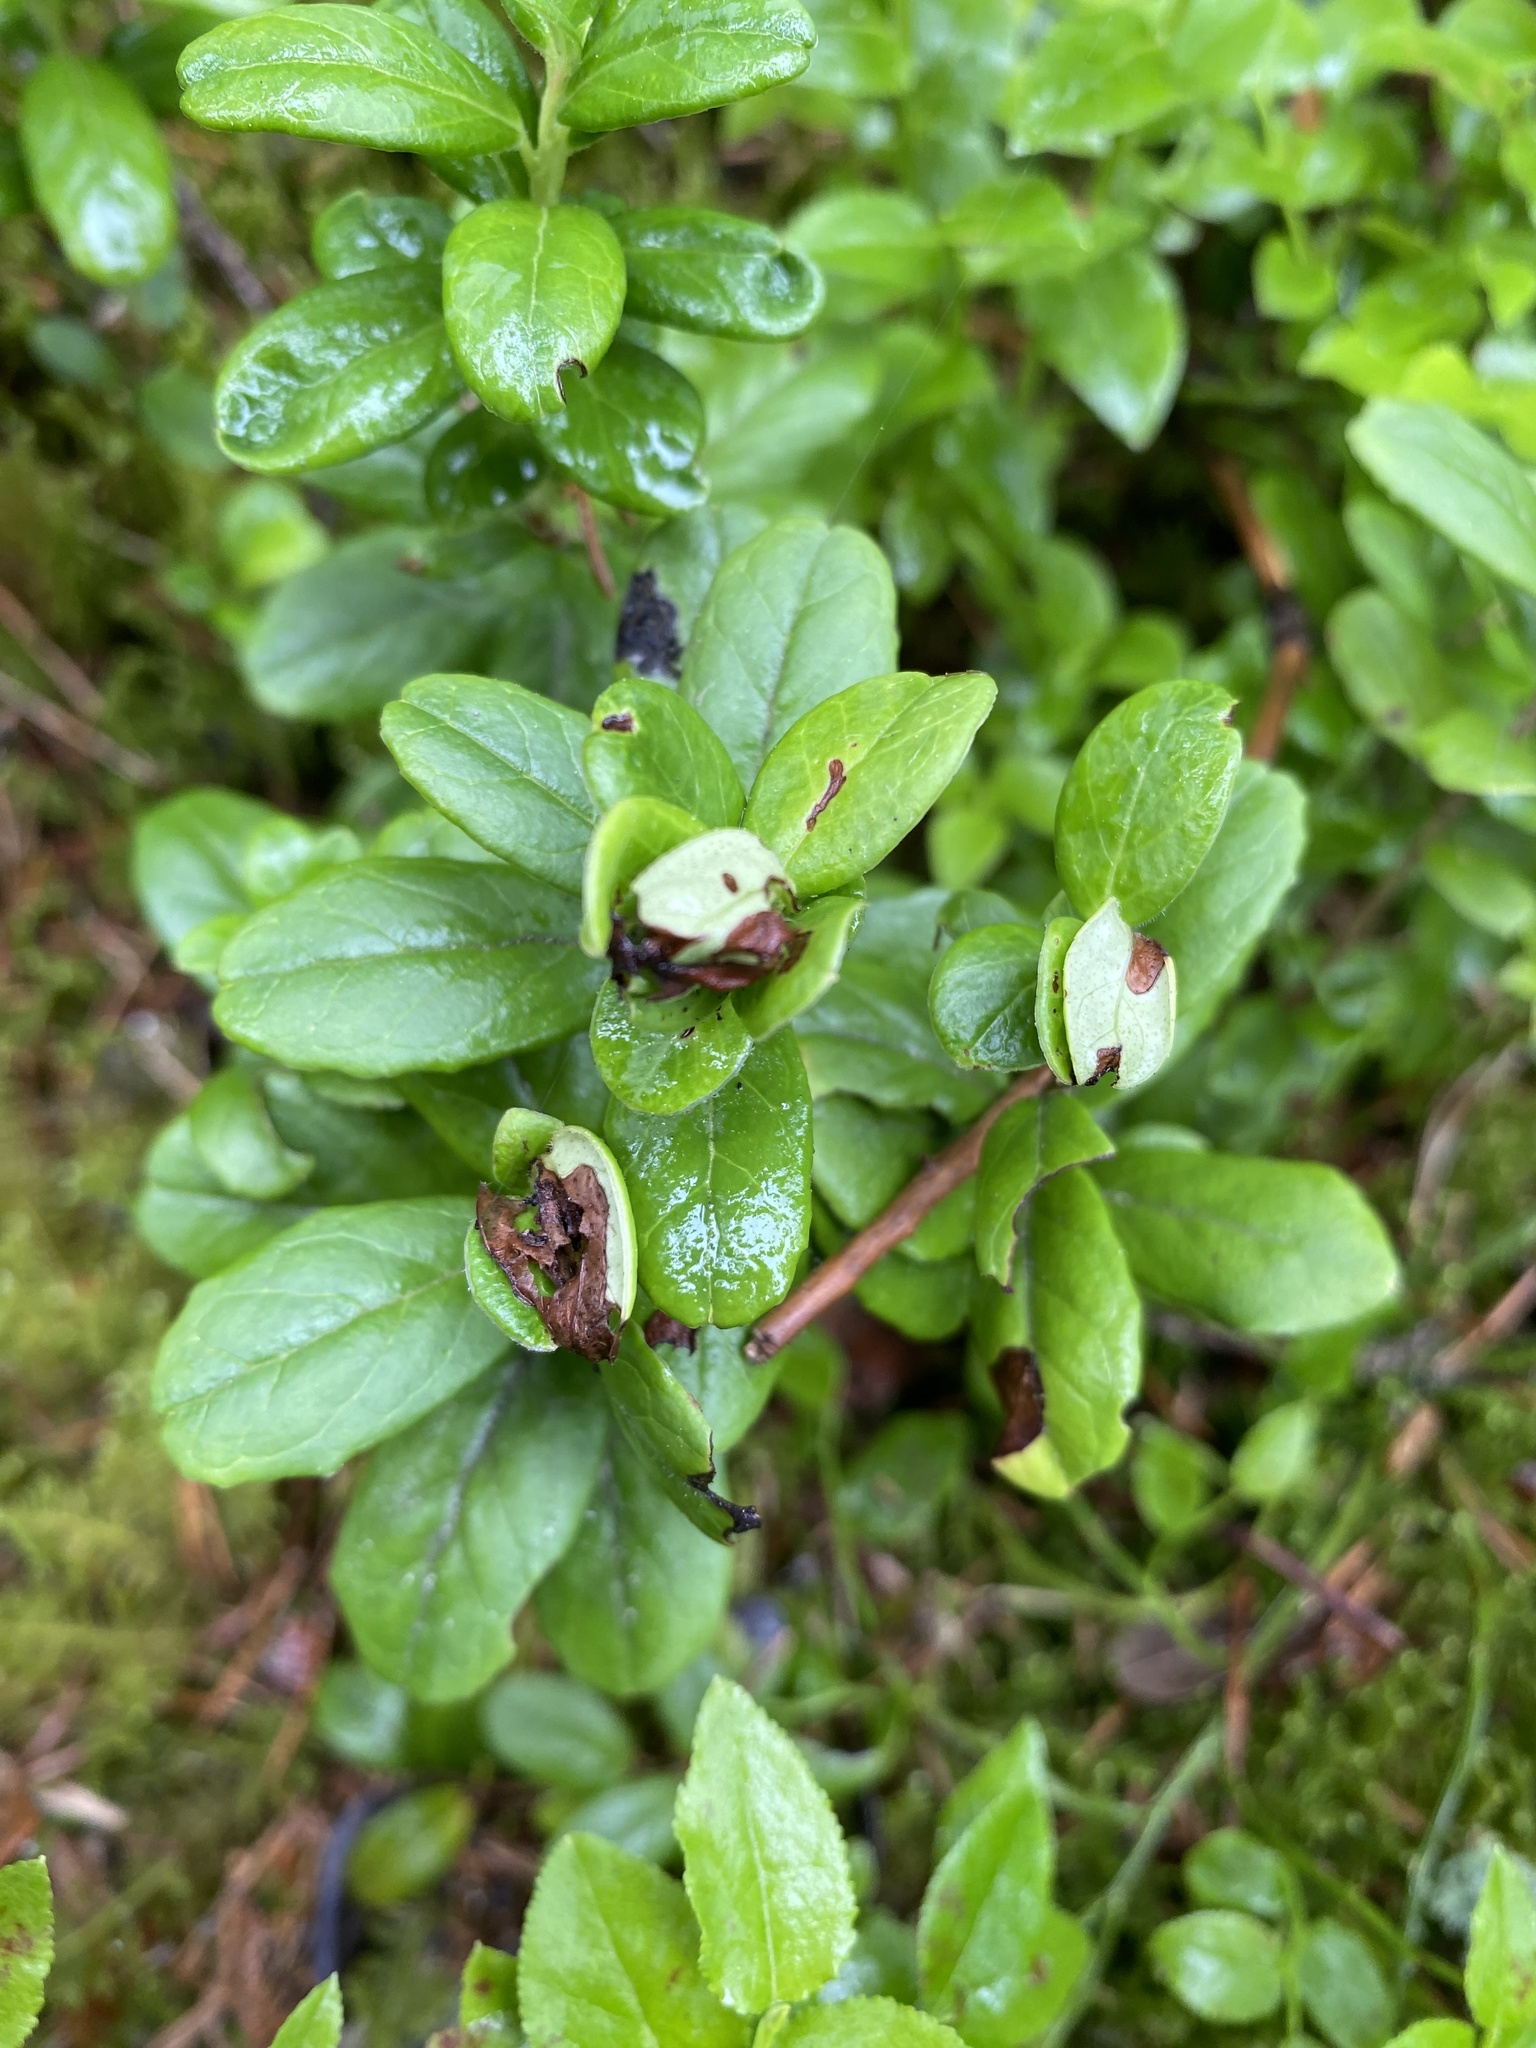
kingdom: Plantae
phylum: Tracheophyta
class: Magnoliopsida
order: Ericales
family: Ericaceae
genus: Vaccinium
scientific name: Vaccinium vitis-idaea
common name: Cowberry
